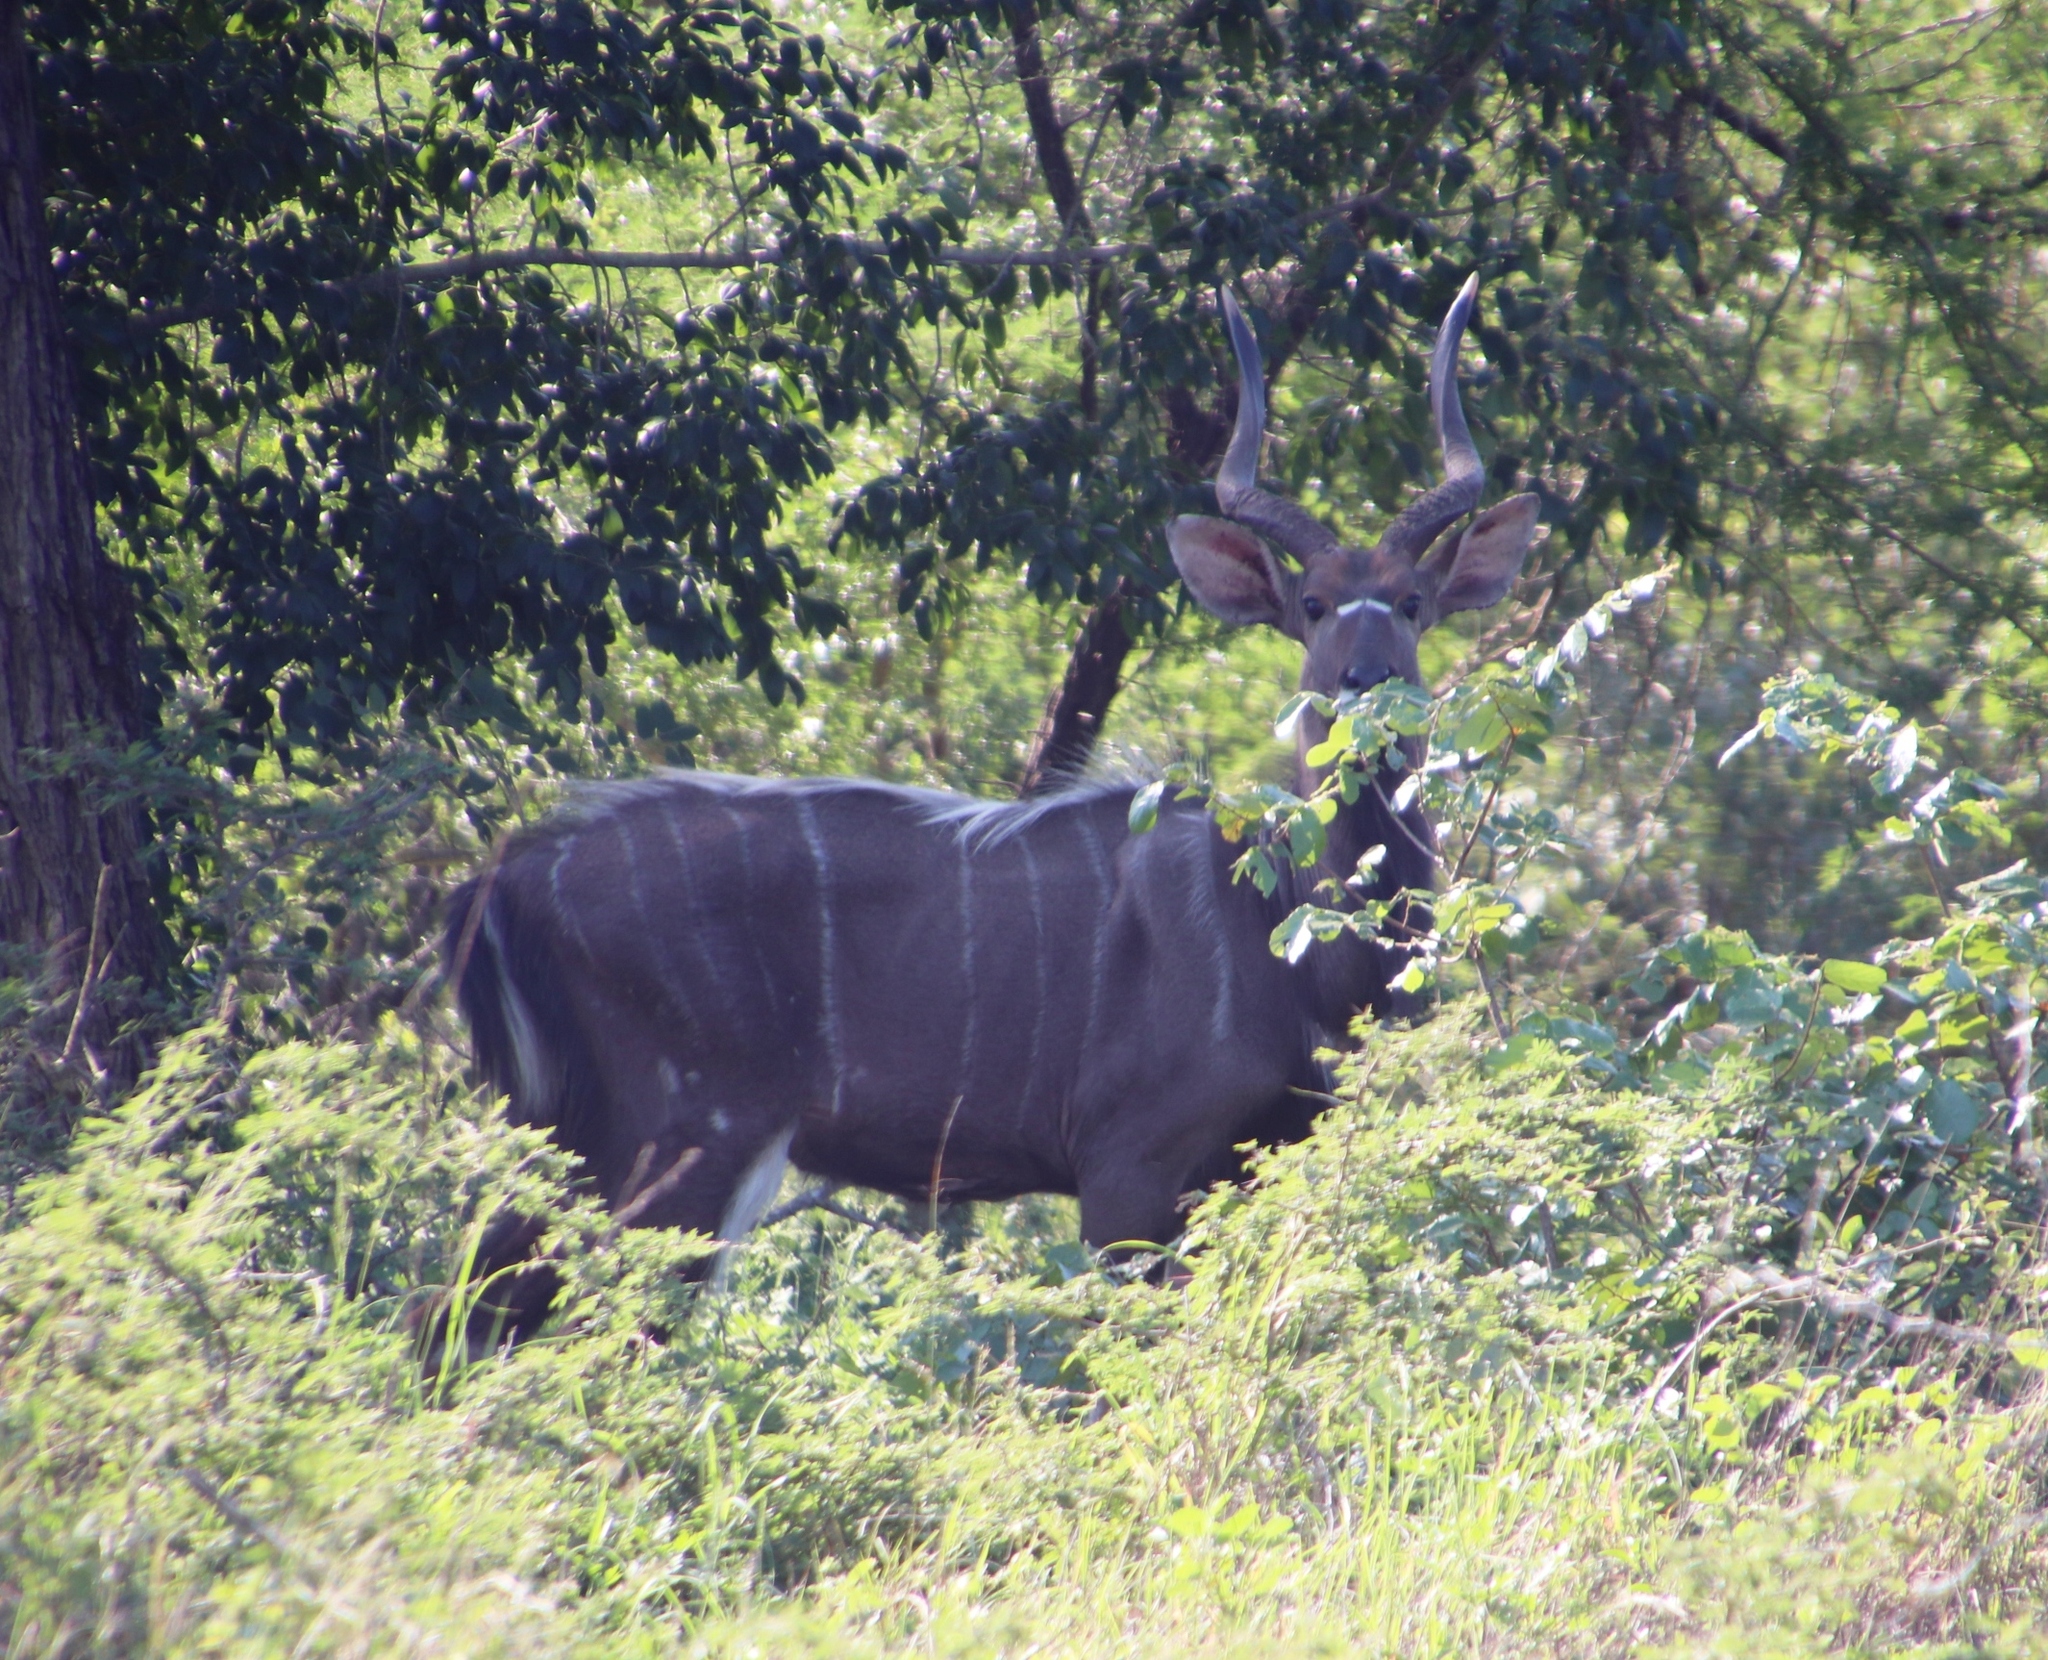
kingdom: Animalia
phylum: Chordata
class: Mammalia
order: Artiodactyla
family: Bovidae
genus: Tragelaphus
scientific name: Tragelaphus angasii
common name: Nyala
